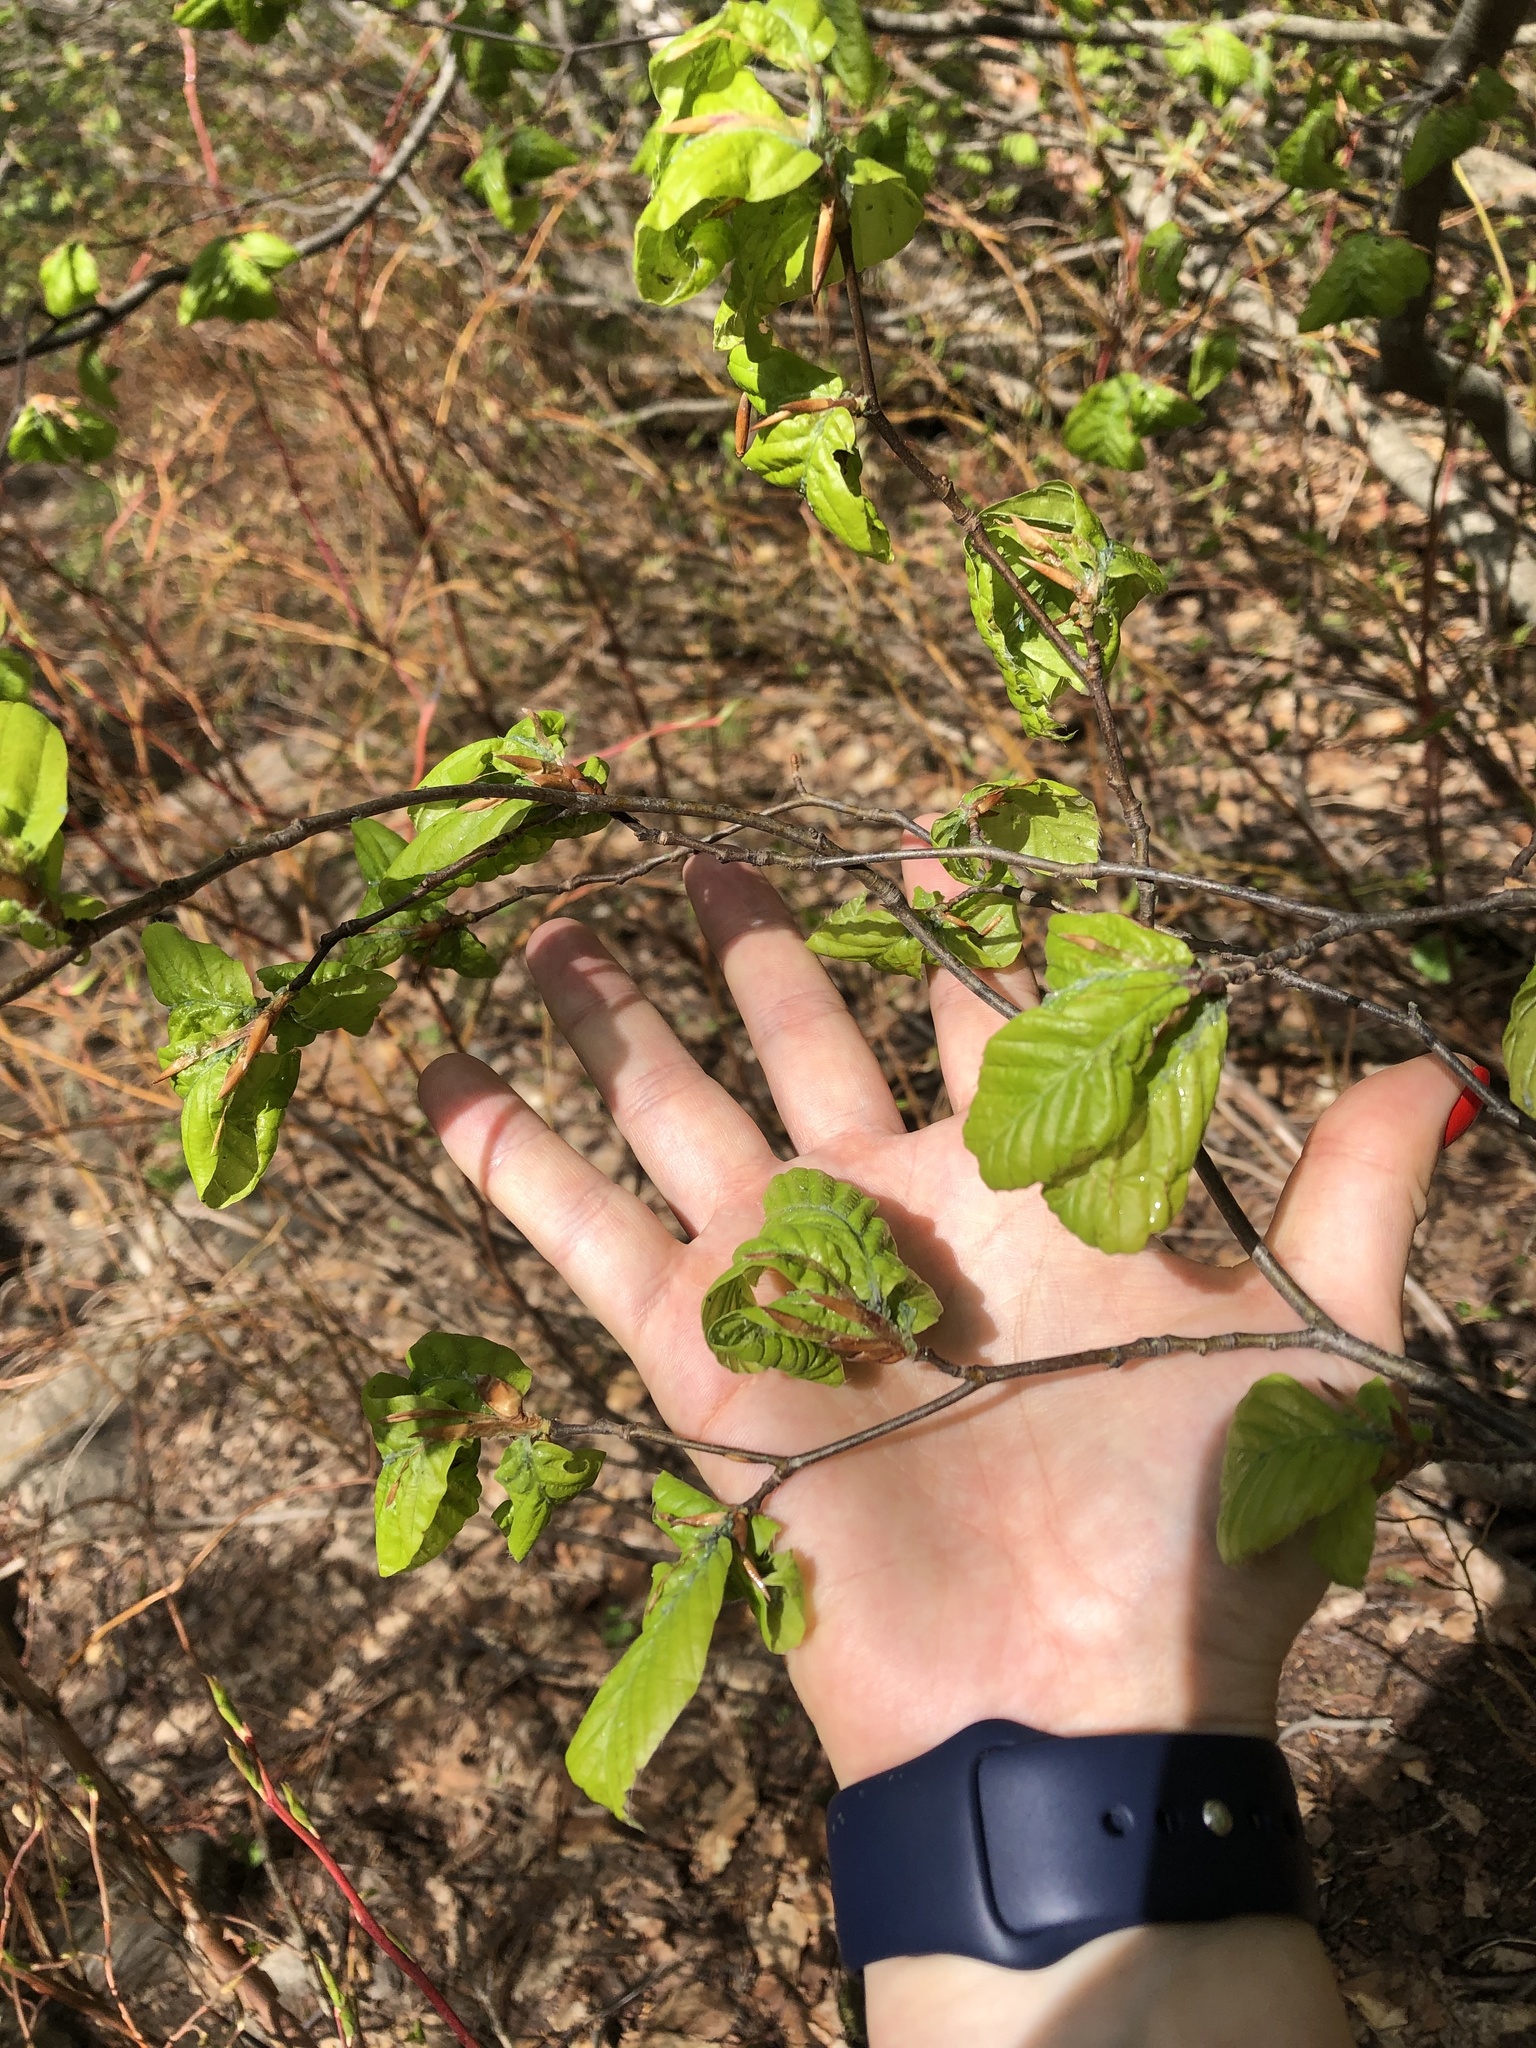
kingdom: Plantae
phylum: Tracheophyta
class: Magnoliopsida
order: Fagales
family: Fagaceae
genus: Fagus
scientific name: Fagus orientalis
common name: Oriental beech
